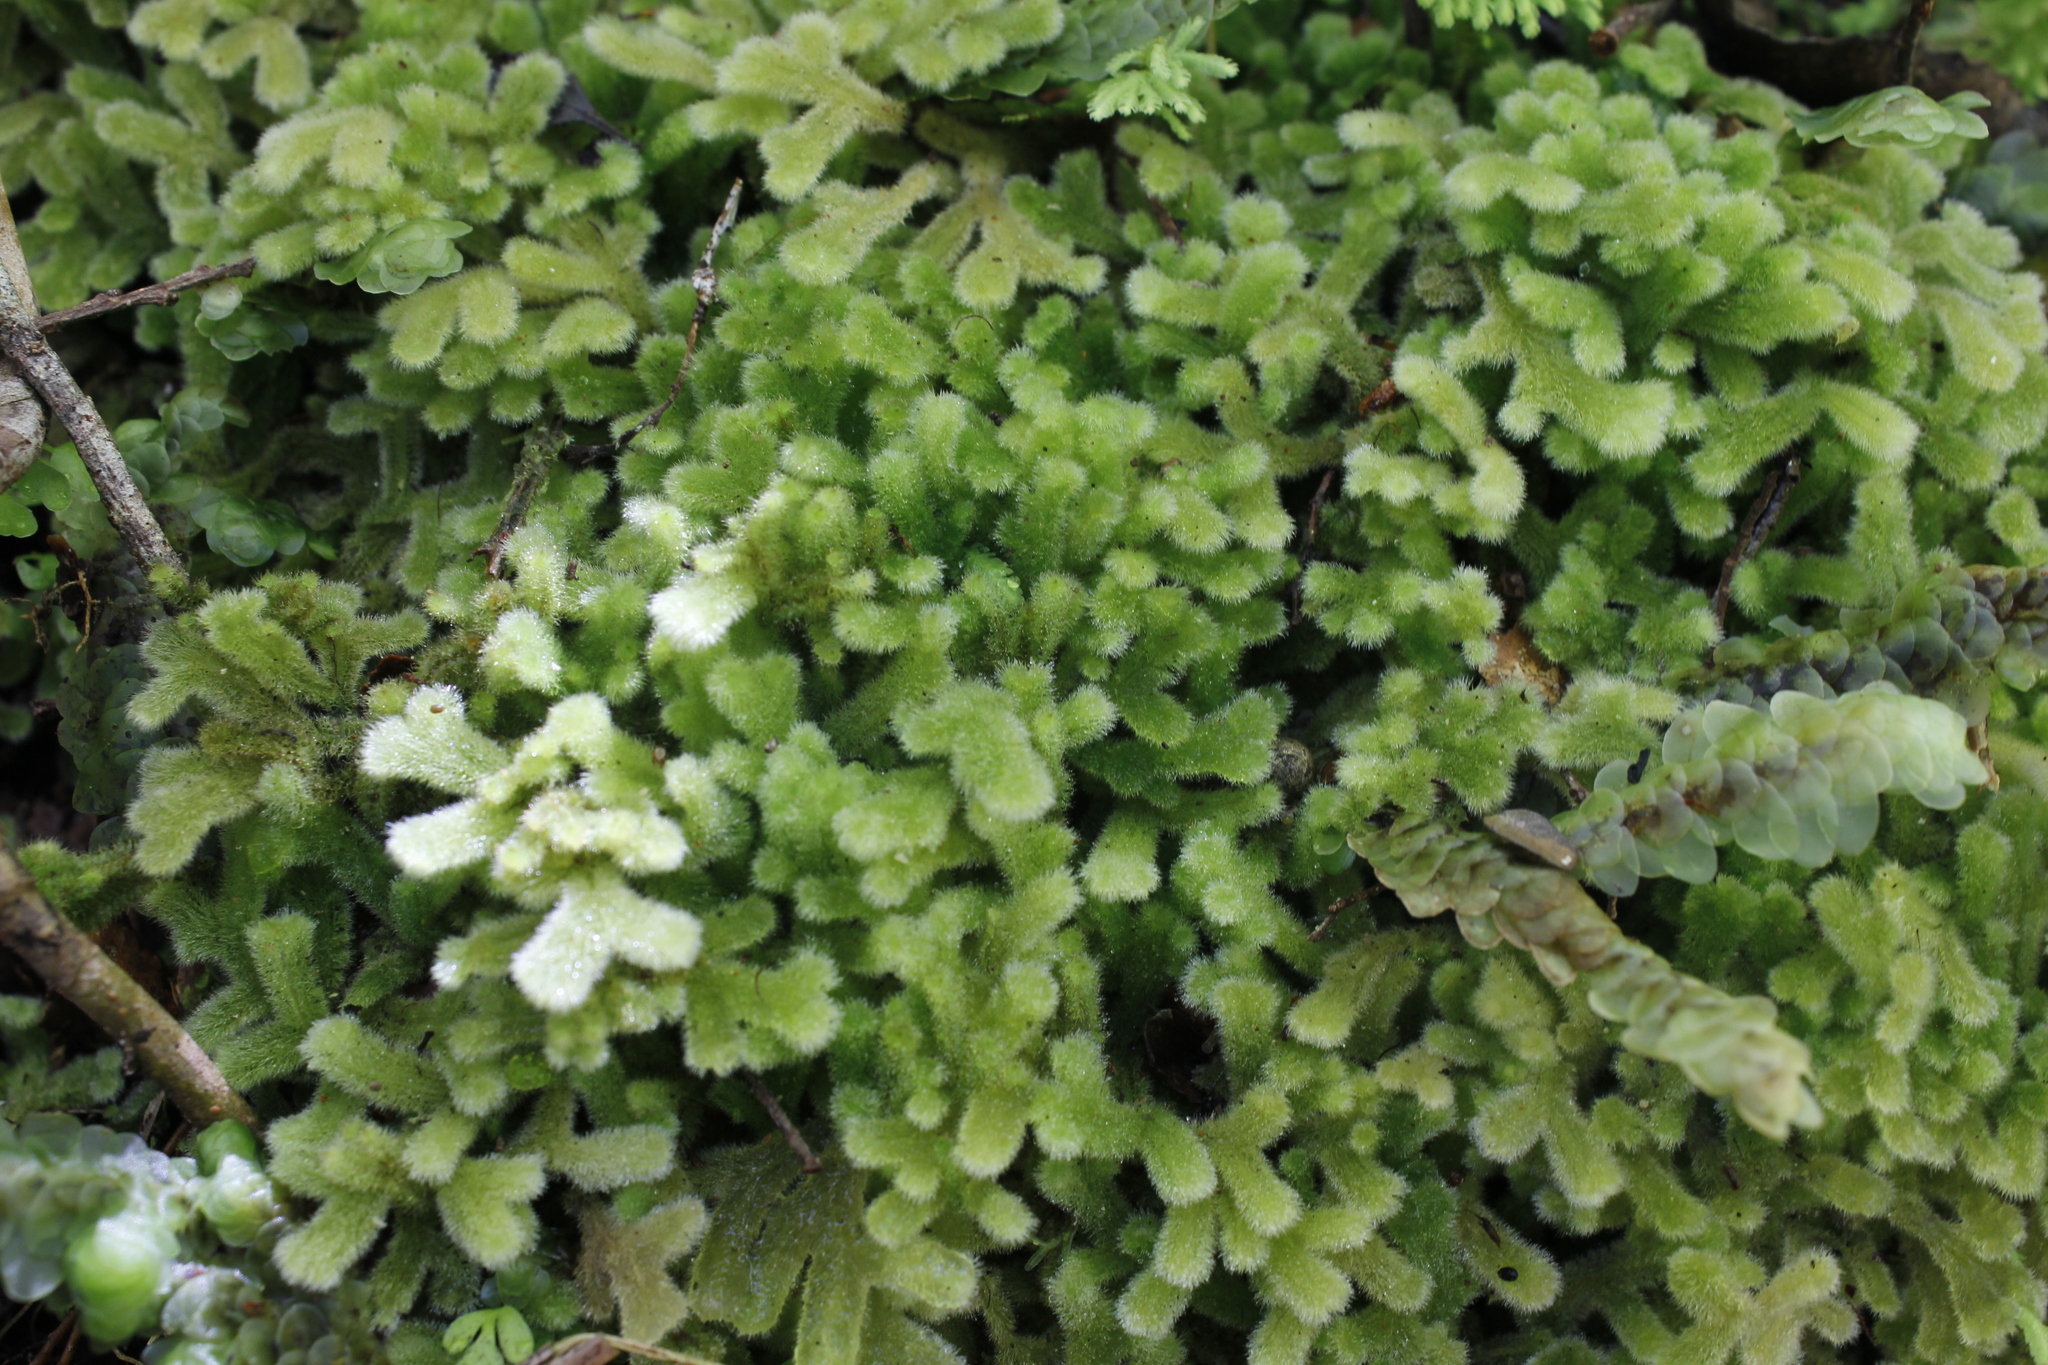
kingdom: Plantae
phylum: Marchantiophyta
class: Jungermanniopsida
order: Jungermanniales
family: Trichocoleaceae
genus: Leiomitra
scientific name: Leiomitra lanata
